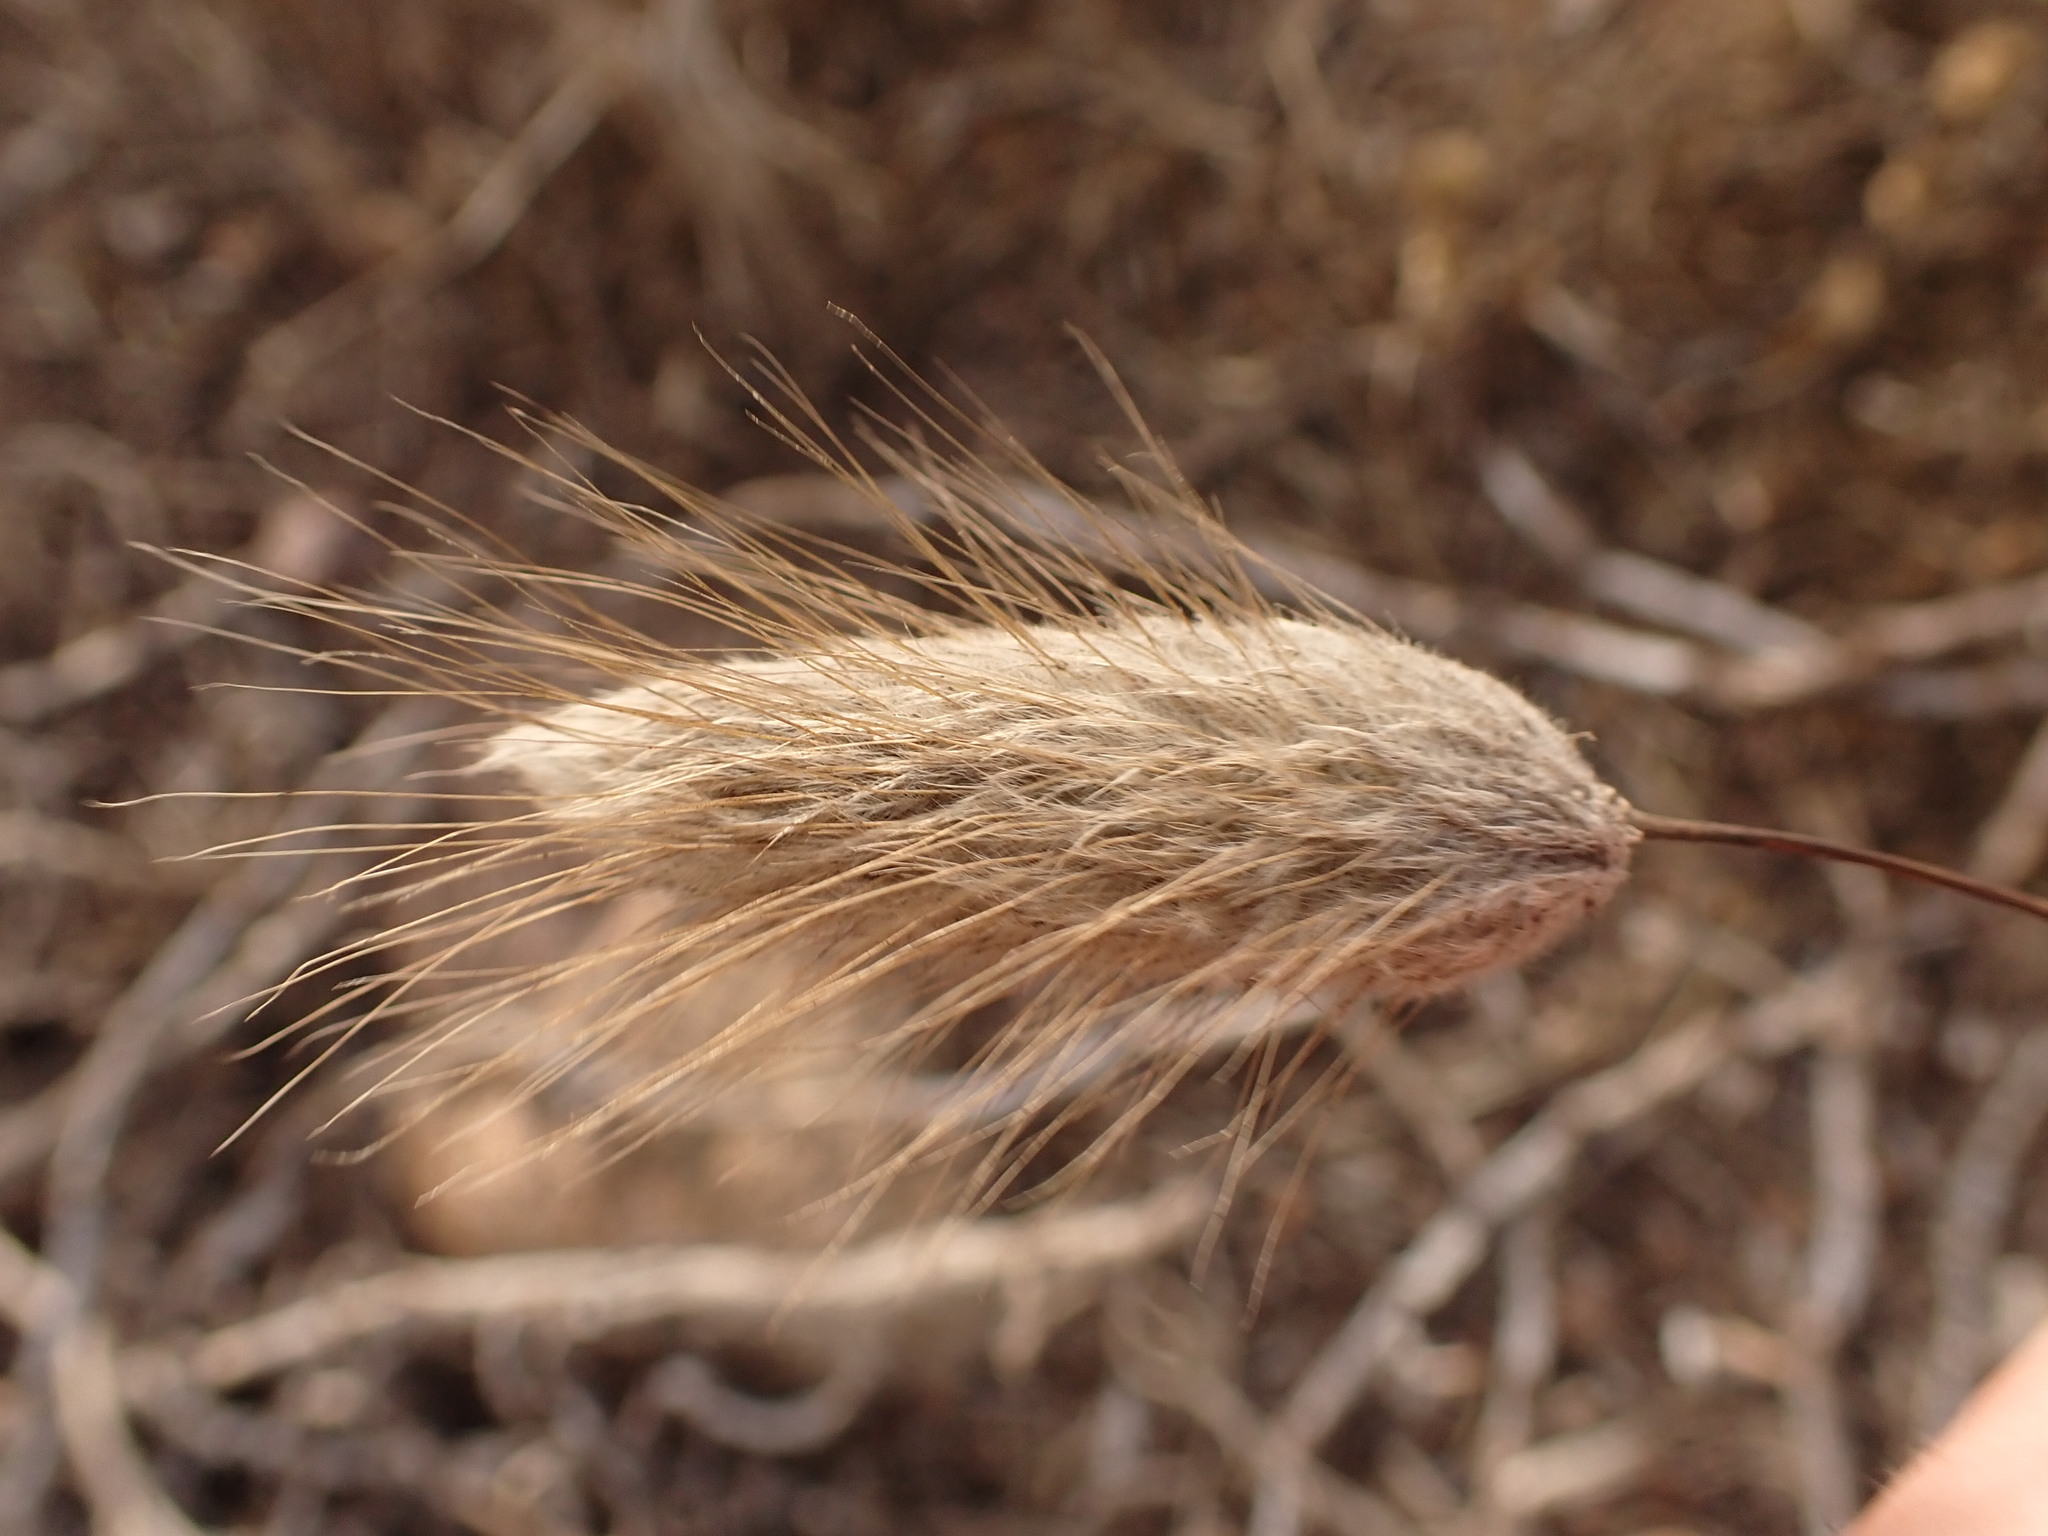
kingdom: Plantae
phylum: Tracheophyta
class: Liliopsida
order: Poales
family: Poaceae
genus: Lagurus
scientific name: Lagurus ovatus
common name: Hare's-tail
